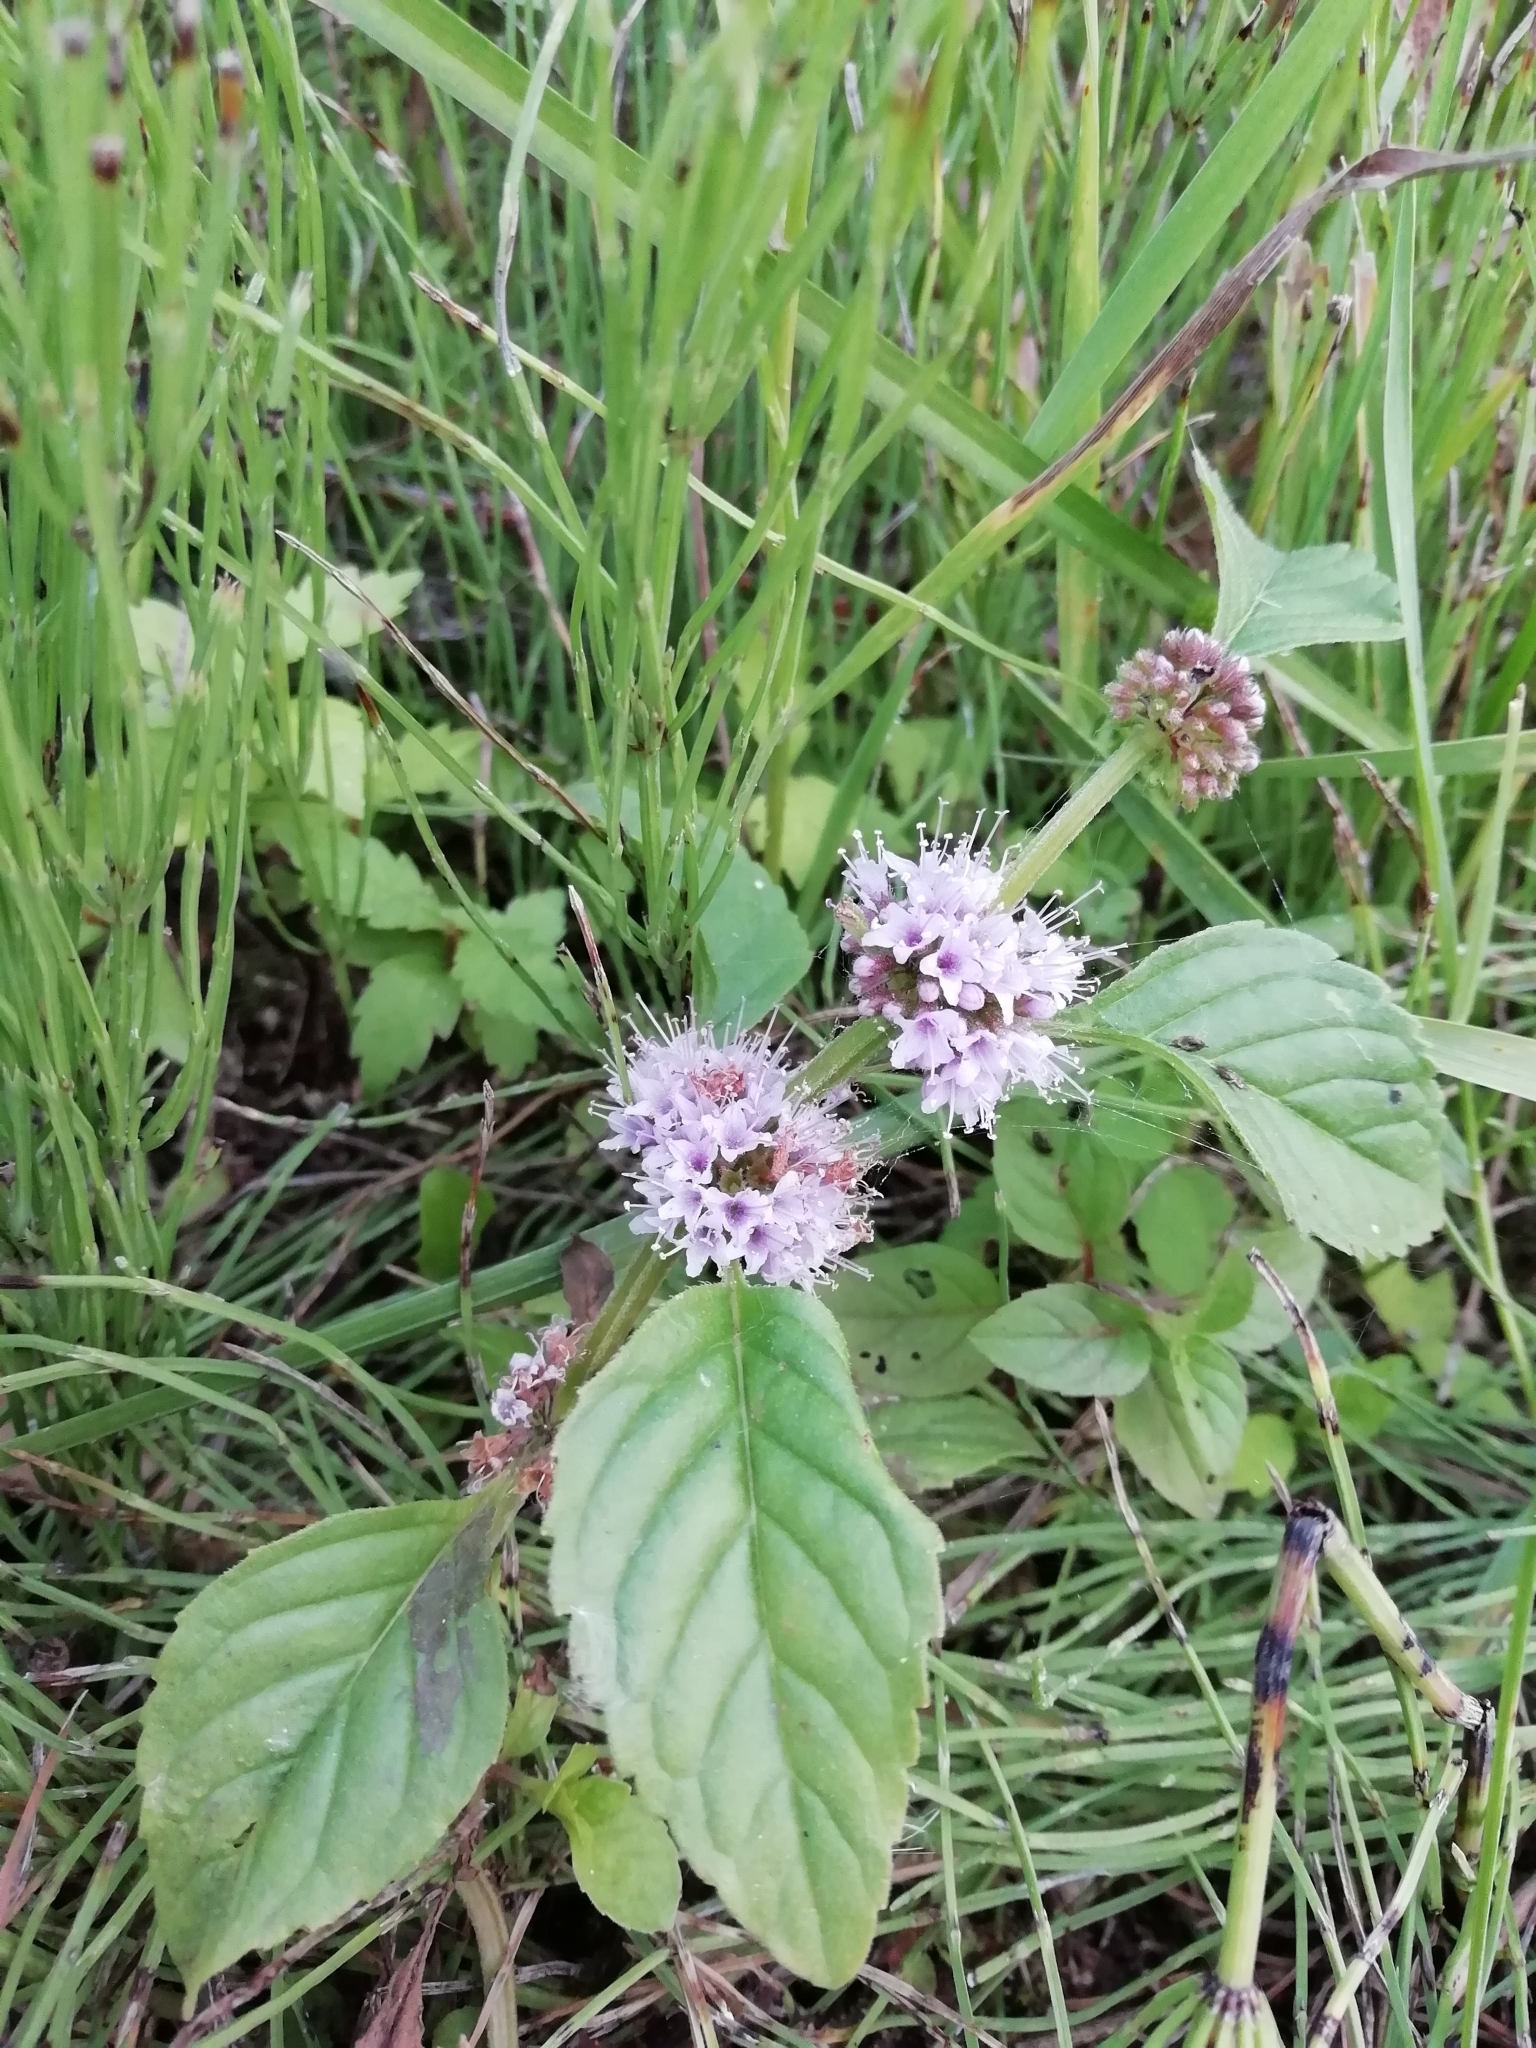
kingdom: Plantae
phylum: Tracheophyta
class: Magnoliopsida
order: Lamiales
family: Lamiaceae
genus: Mentha
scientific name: Mentha arvensis
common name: Corn mint
